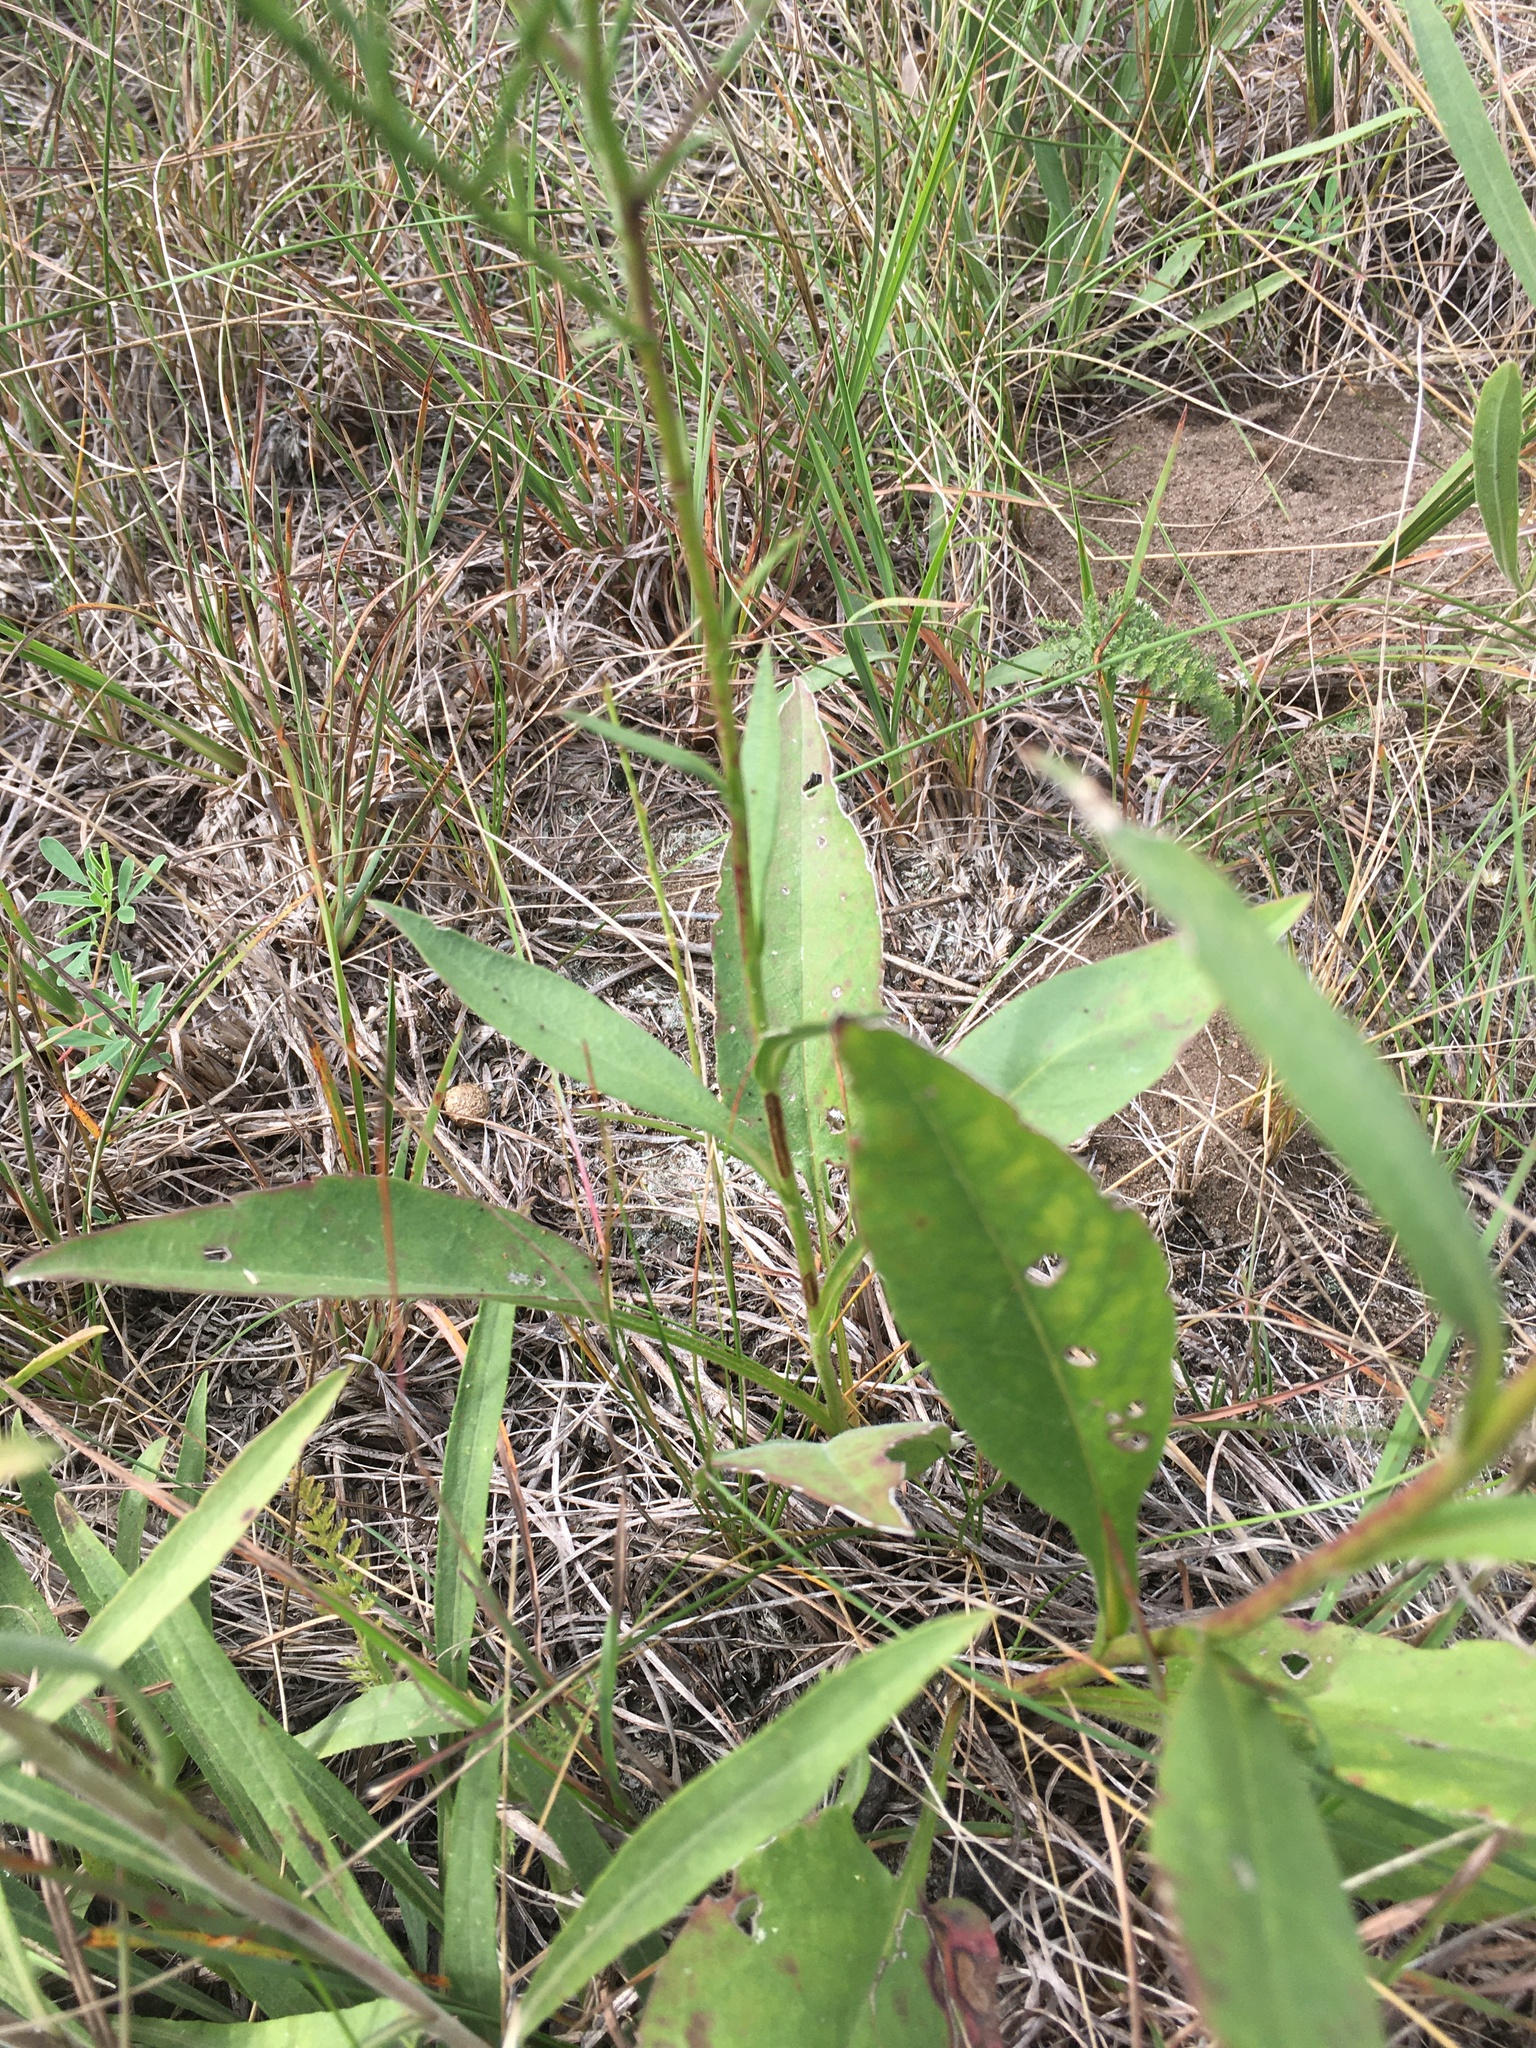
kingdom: Plantae
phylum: Tracheophyta
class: Magnoliopsida
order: Asterales
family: Asteraceae
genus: Symphyotrichum
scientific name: Symphyotrichum oolentangiense
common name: Azure aster
